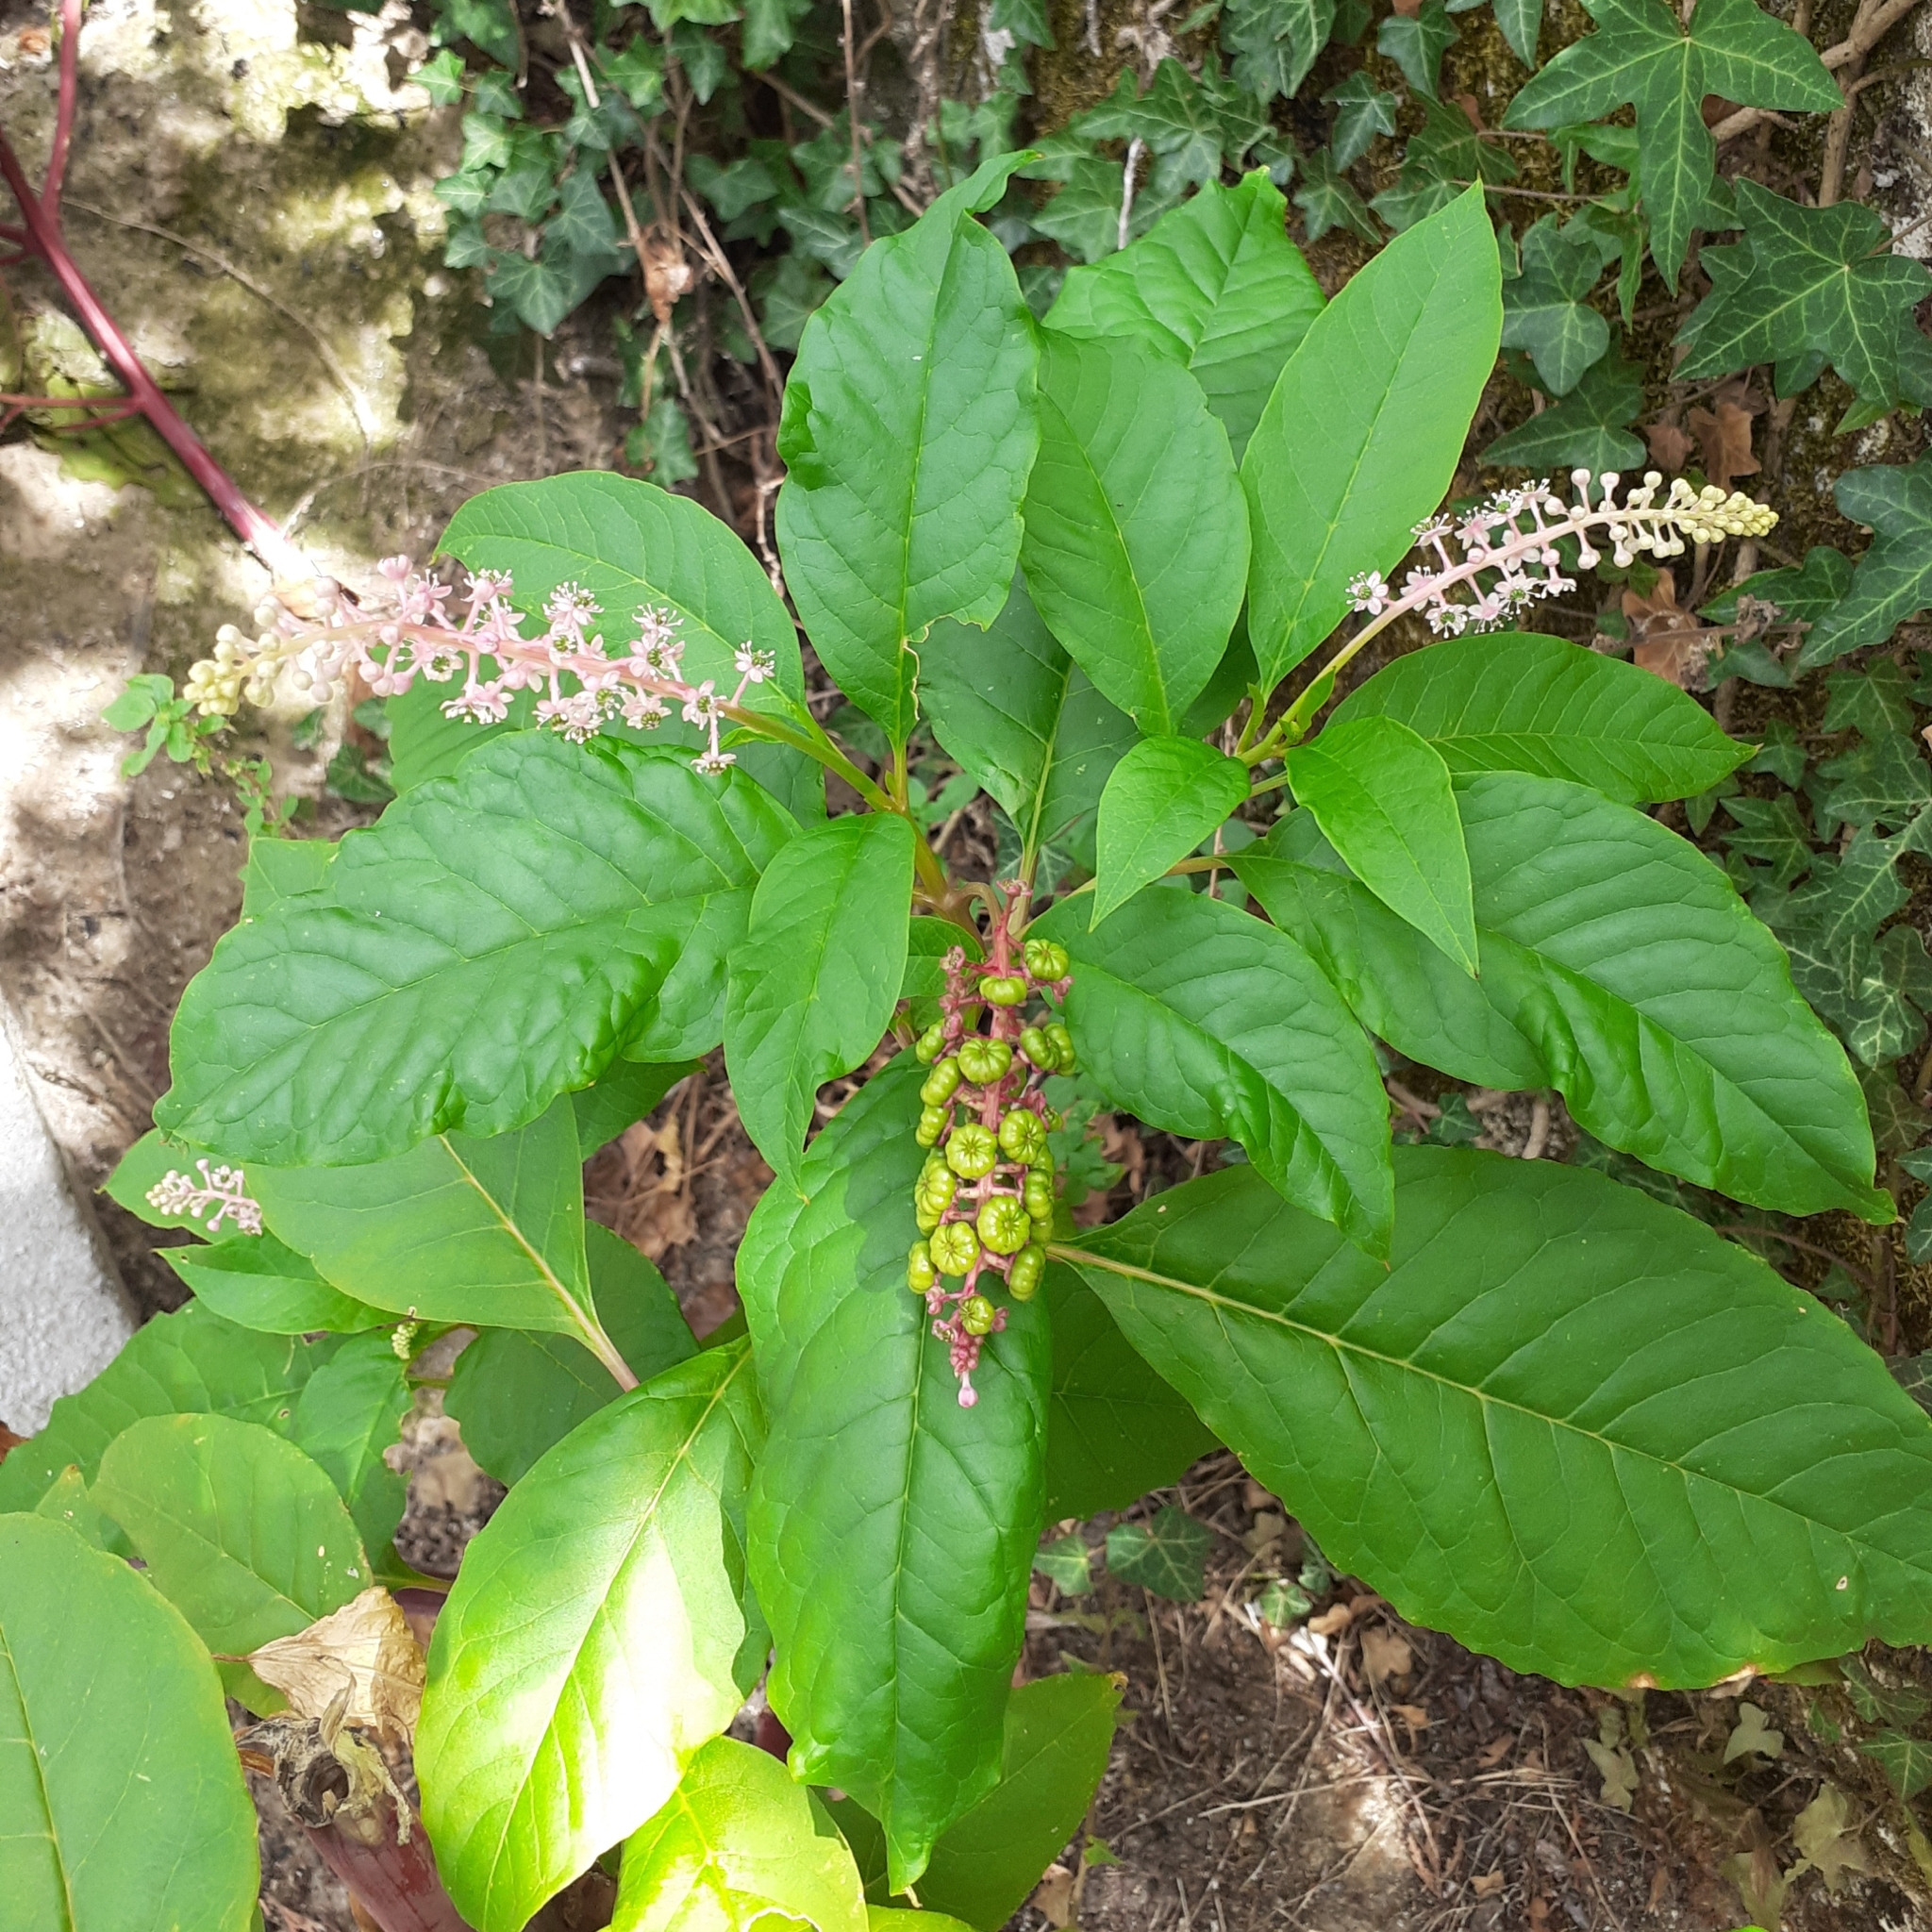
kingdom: Plantae
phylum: Tracheophyta
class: Magnoliopsida
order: Caryophyllales
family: Phytolaccaceae
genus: Phytolacca
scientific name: Phytolacca americana
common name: American pokeweed
